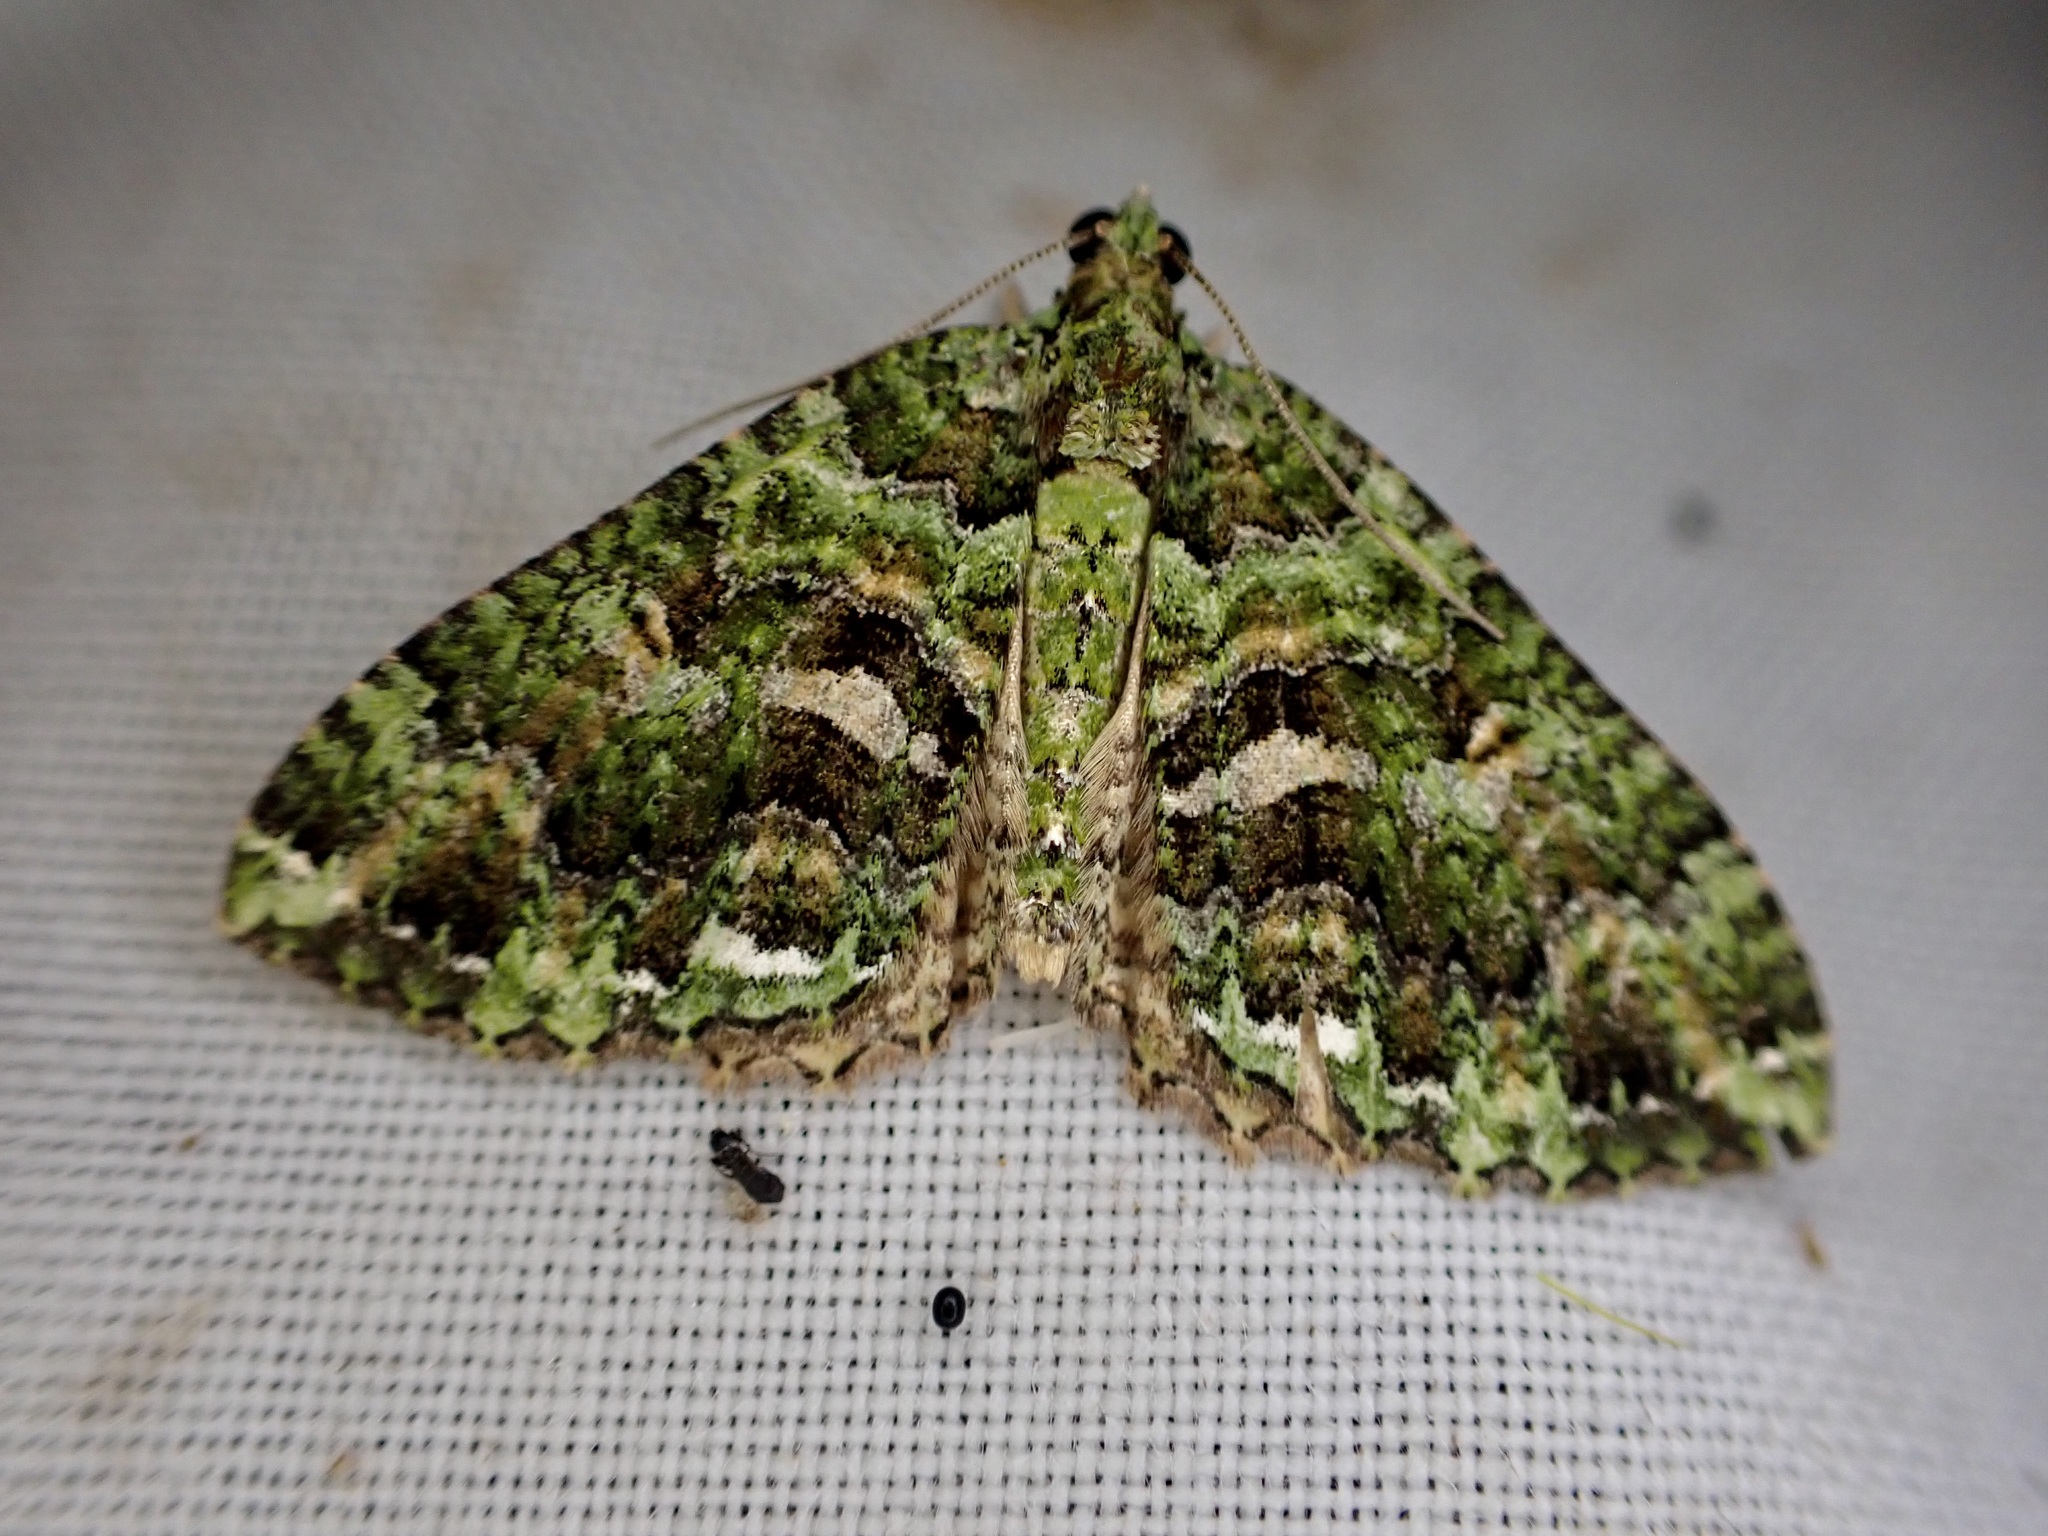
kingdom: Animalia
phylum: Arthropoda
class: Insecta
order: Lepidoptera
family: Geometridae
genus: Austrocidaria
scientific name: Austrocidaria similata
